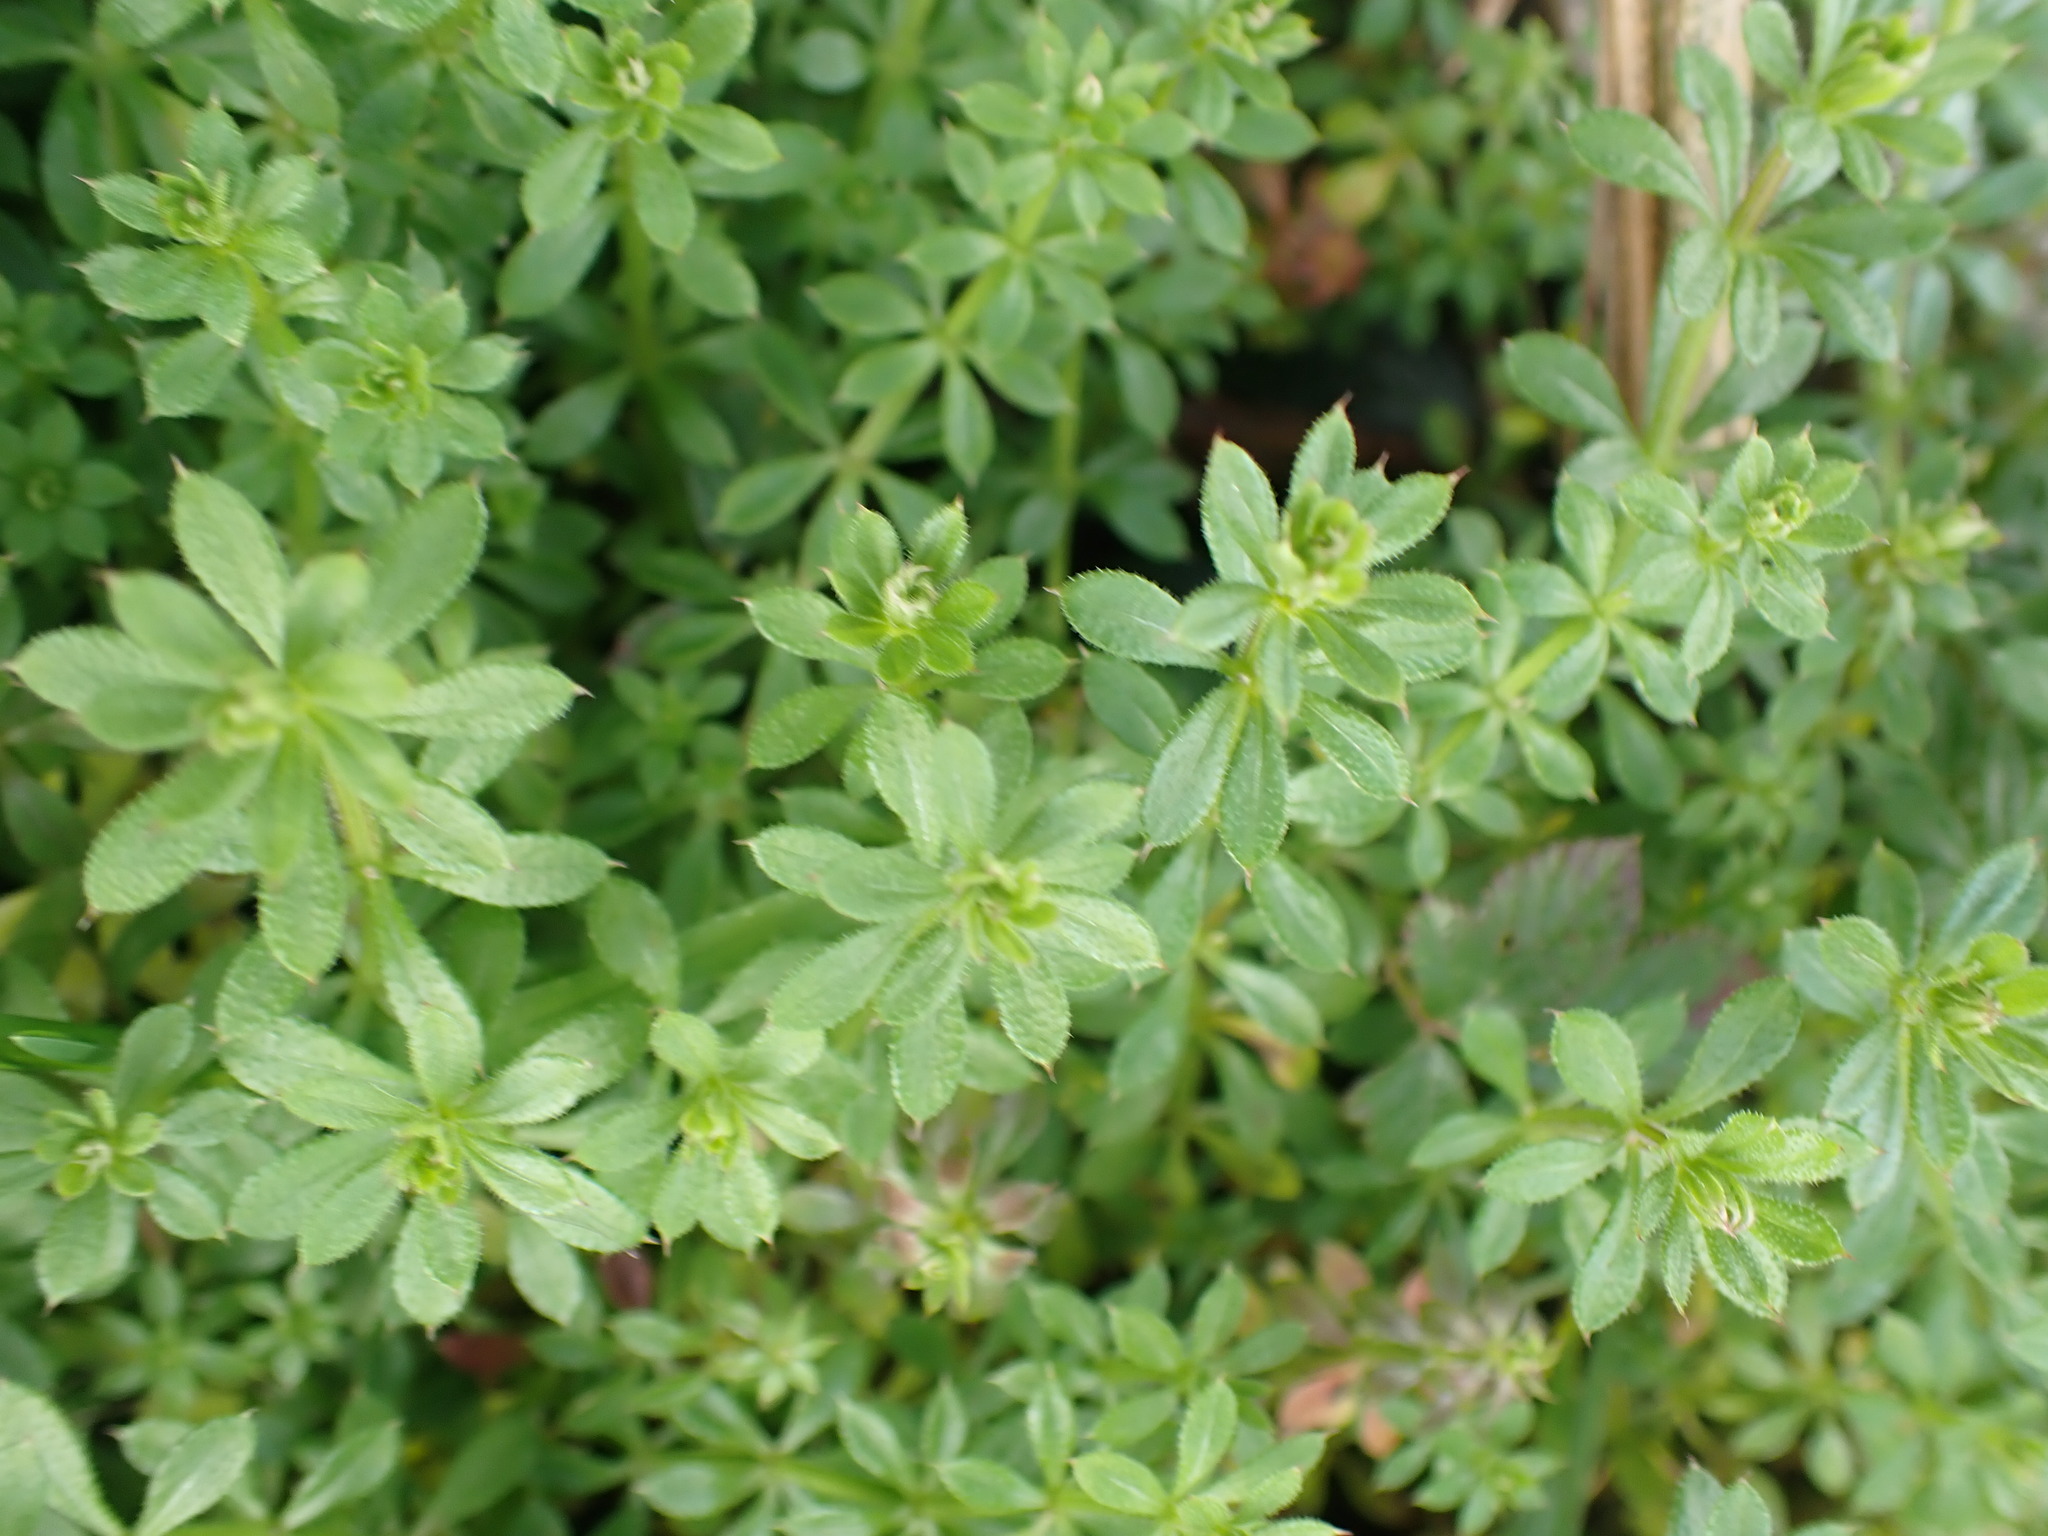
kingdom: Plantae
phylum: Tracheophyta
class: Magnoliopsida
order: Gentianales
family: Rubiaceae
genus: Galium
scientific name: Galium aparine
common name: Cleavers
